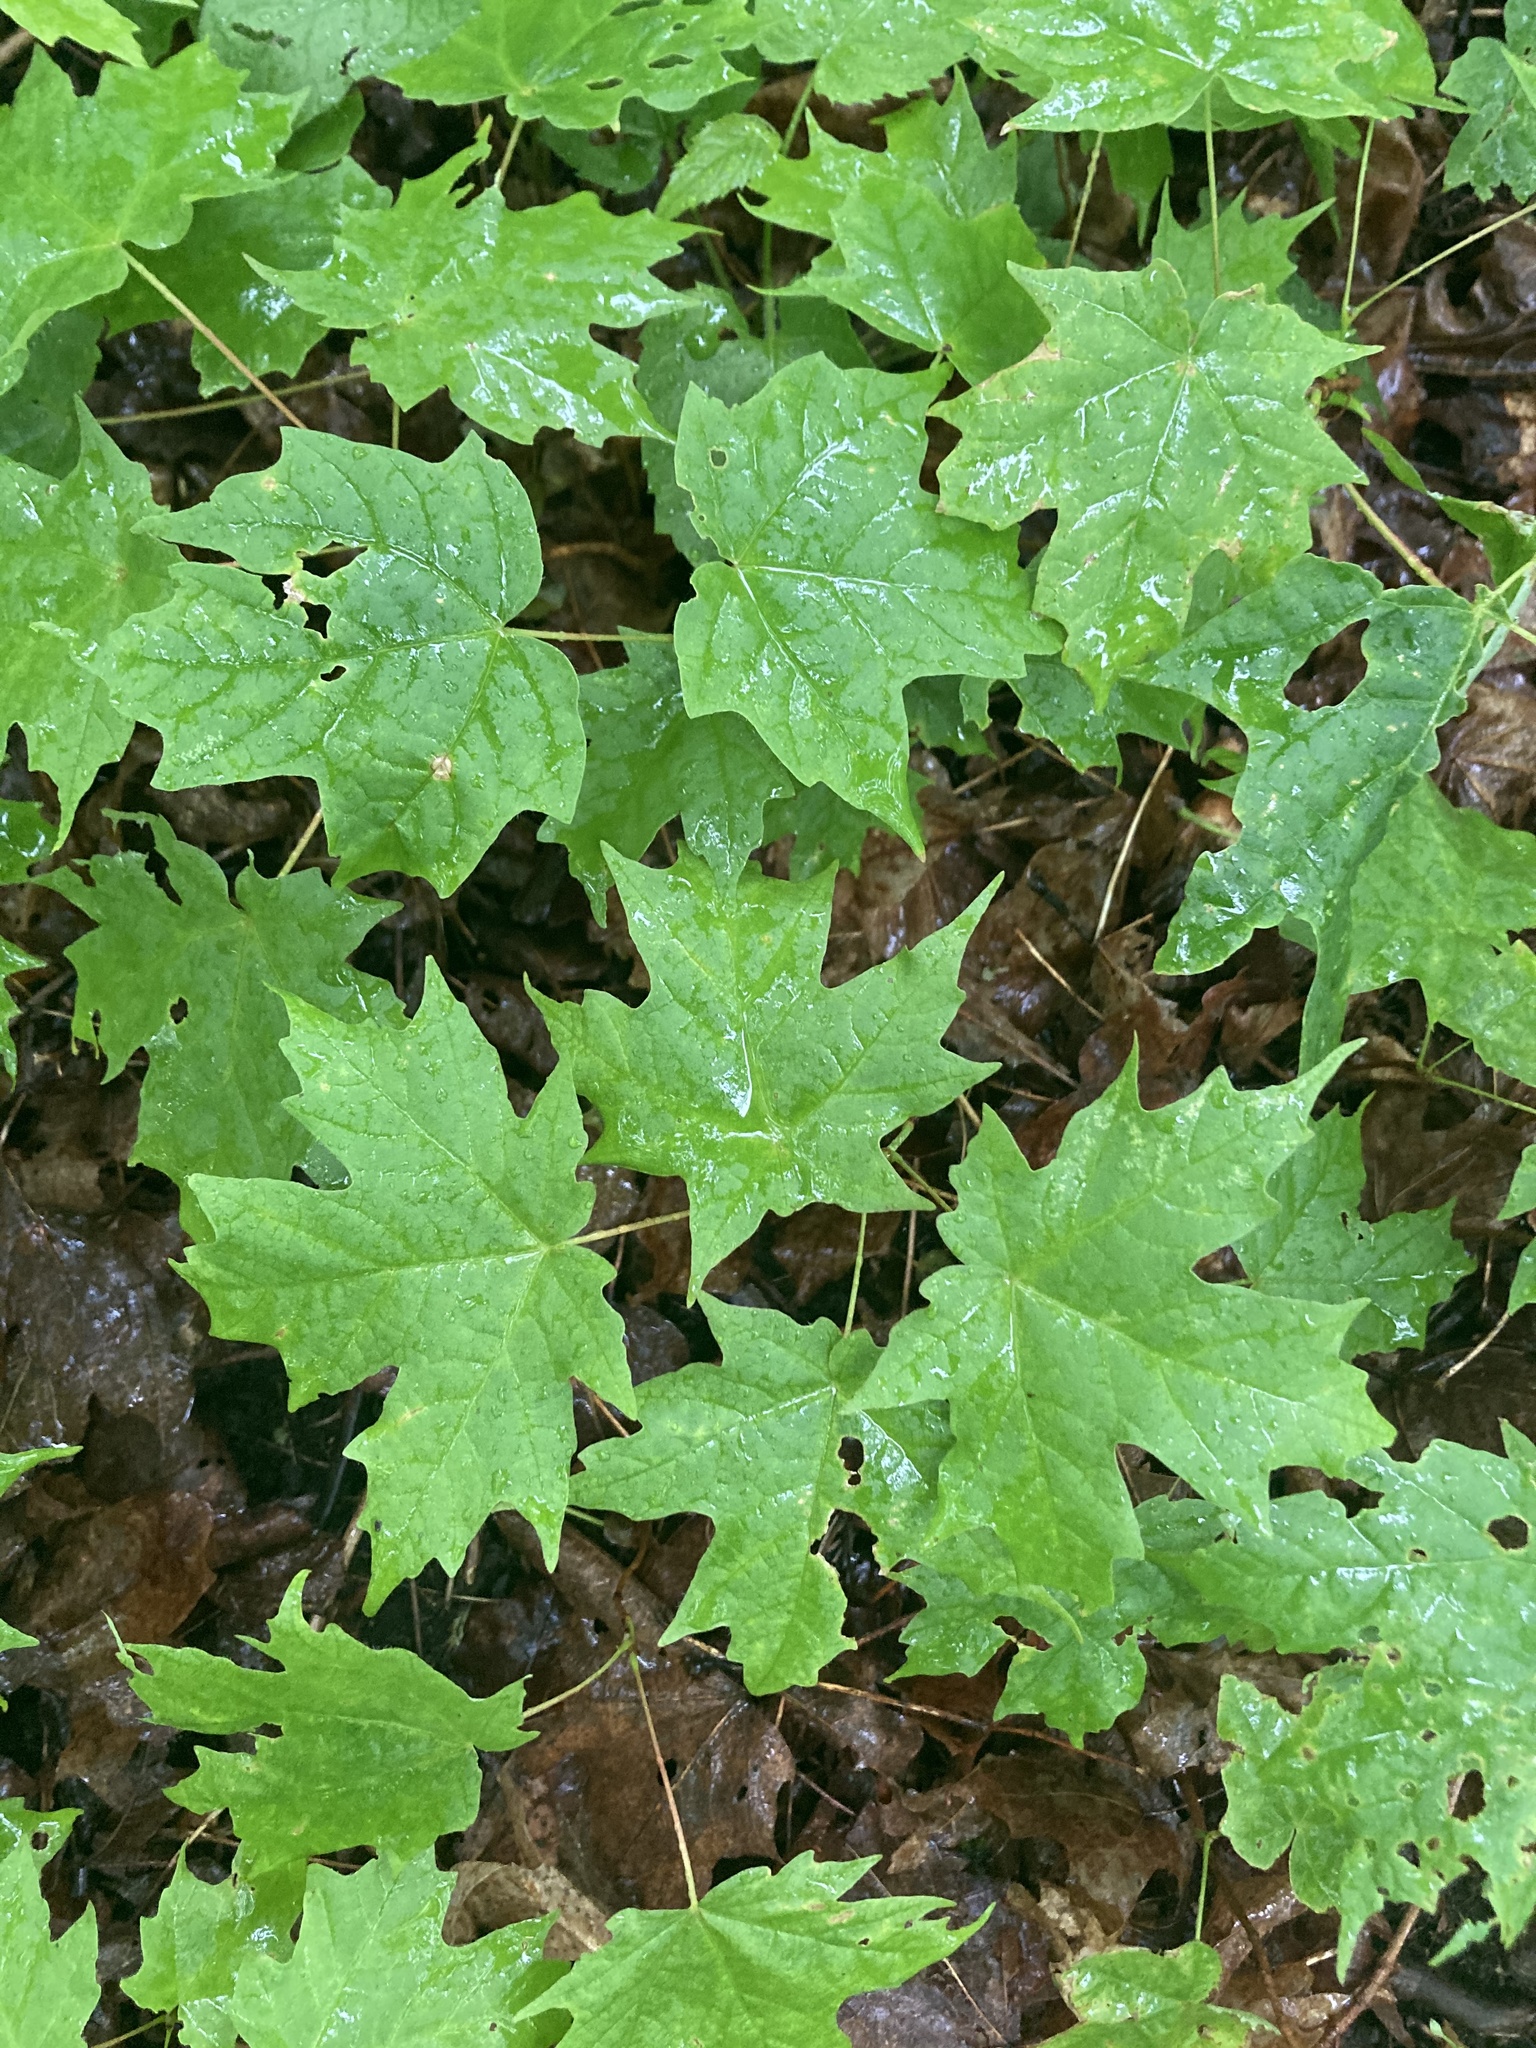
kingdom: Plantae
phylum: Tracheophyta
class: Magnoliopsida
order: Sapindales
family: Sapindaceae
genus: Acer
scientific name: Acer saccharum
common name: Sugar maple
